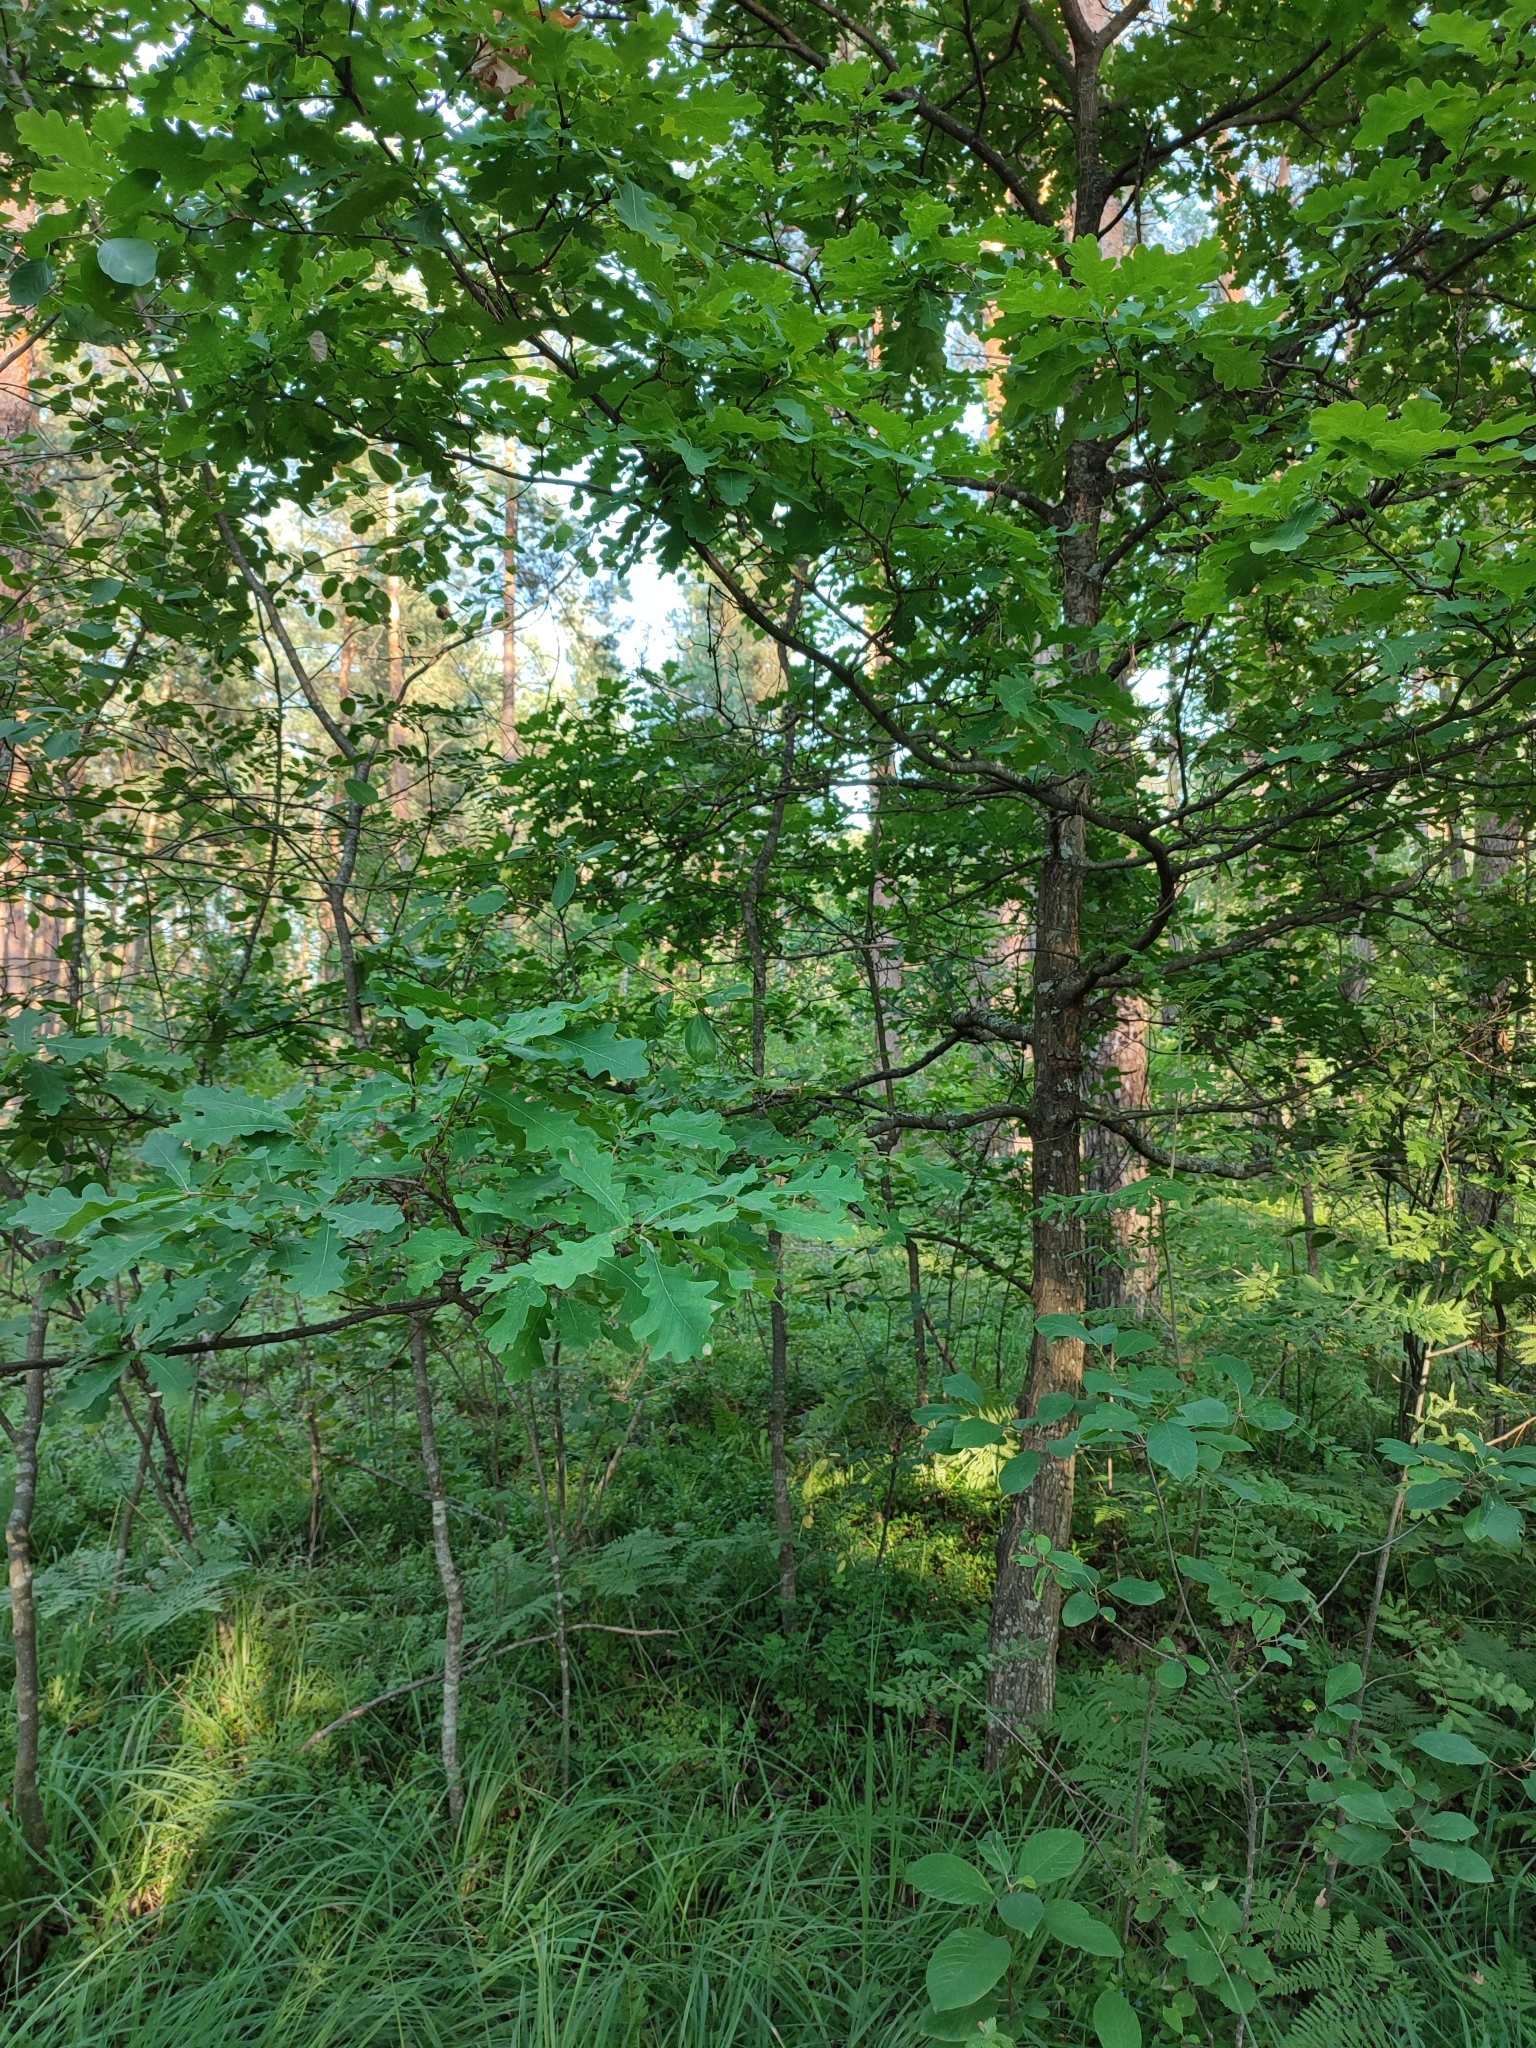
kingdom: Plantae
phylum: Tracheophyta
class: Magnoliopsida
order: Fagales
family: Fagaceae
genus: Quercus
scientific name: Quercus robur
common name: Pedunculate oak
